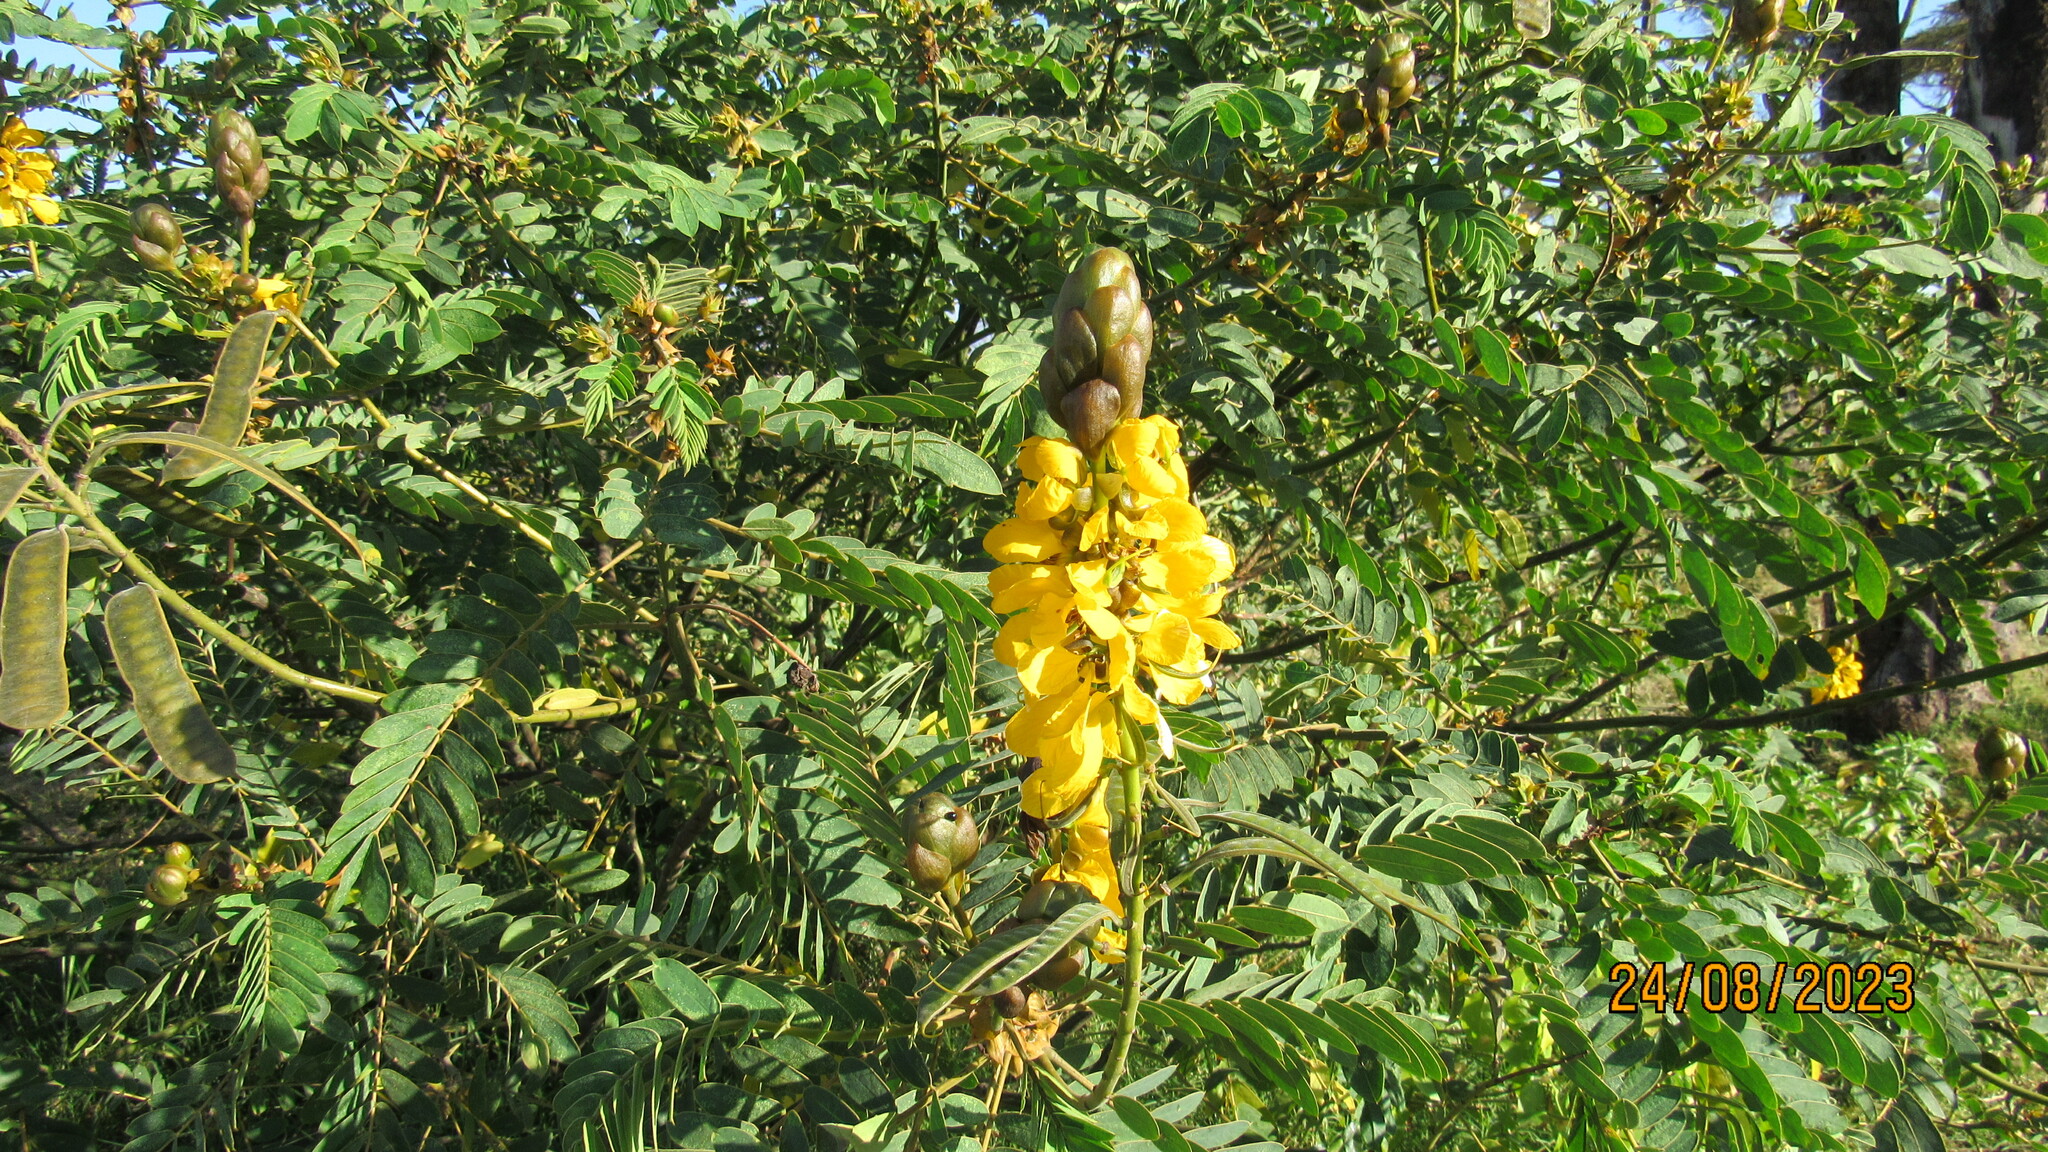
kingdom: Plantae
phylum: Tracheophyta
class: Magnoliopsida
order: Fabales
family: Fabaceae
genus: Senna
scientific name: Senna didymobotrya
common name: African senna
